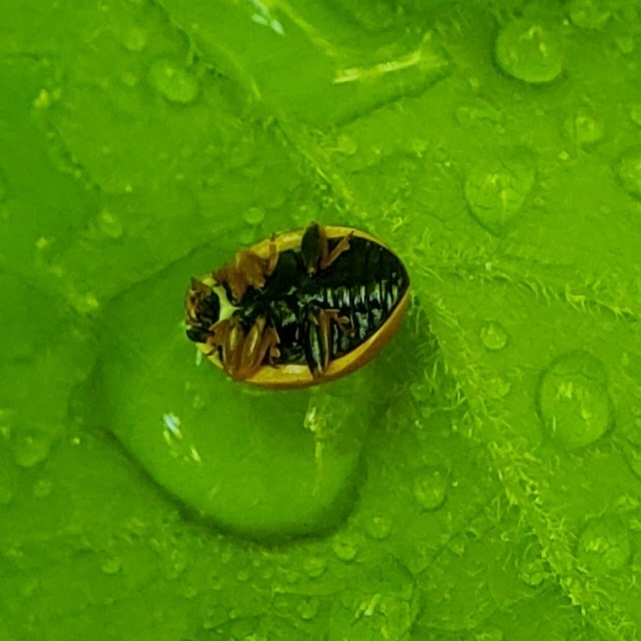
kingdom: Animalia
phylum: Arthropoda
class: Insecta
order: Coleoptera
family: Coccinellidae
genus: Cycloneda
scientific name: Cycloneda munda
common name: Polished lady beetle
